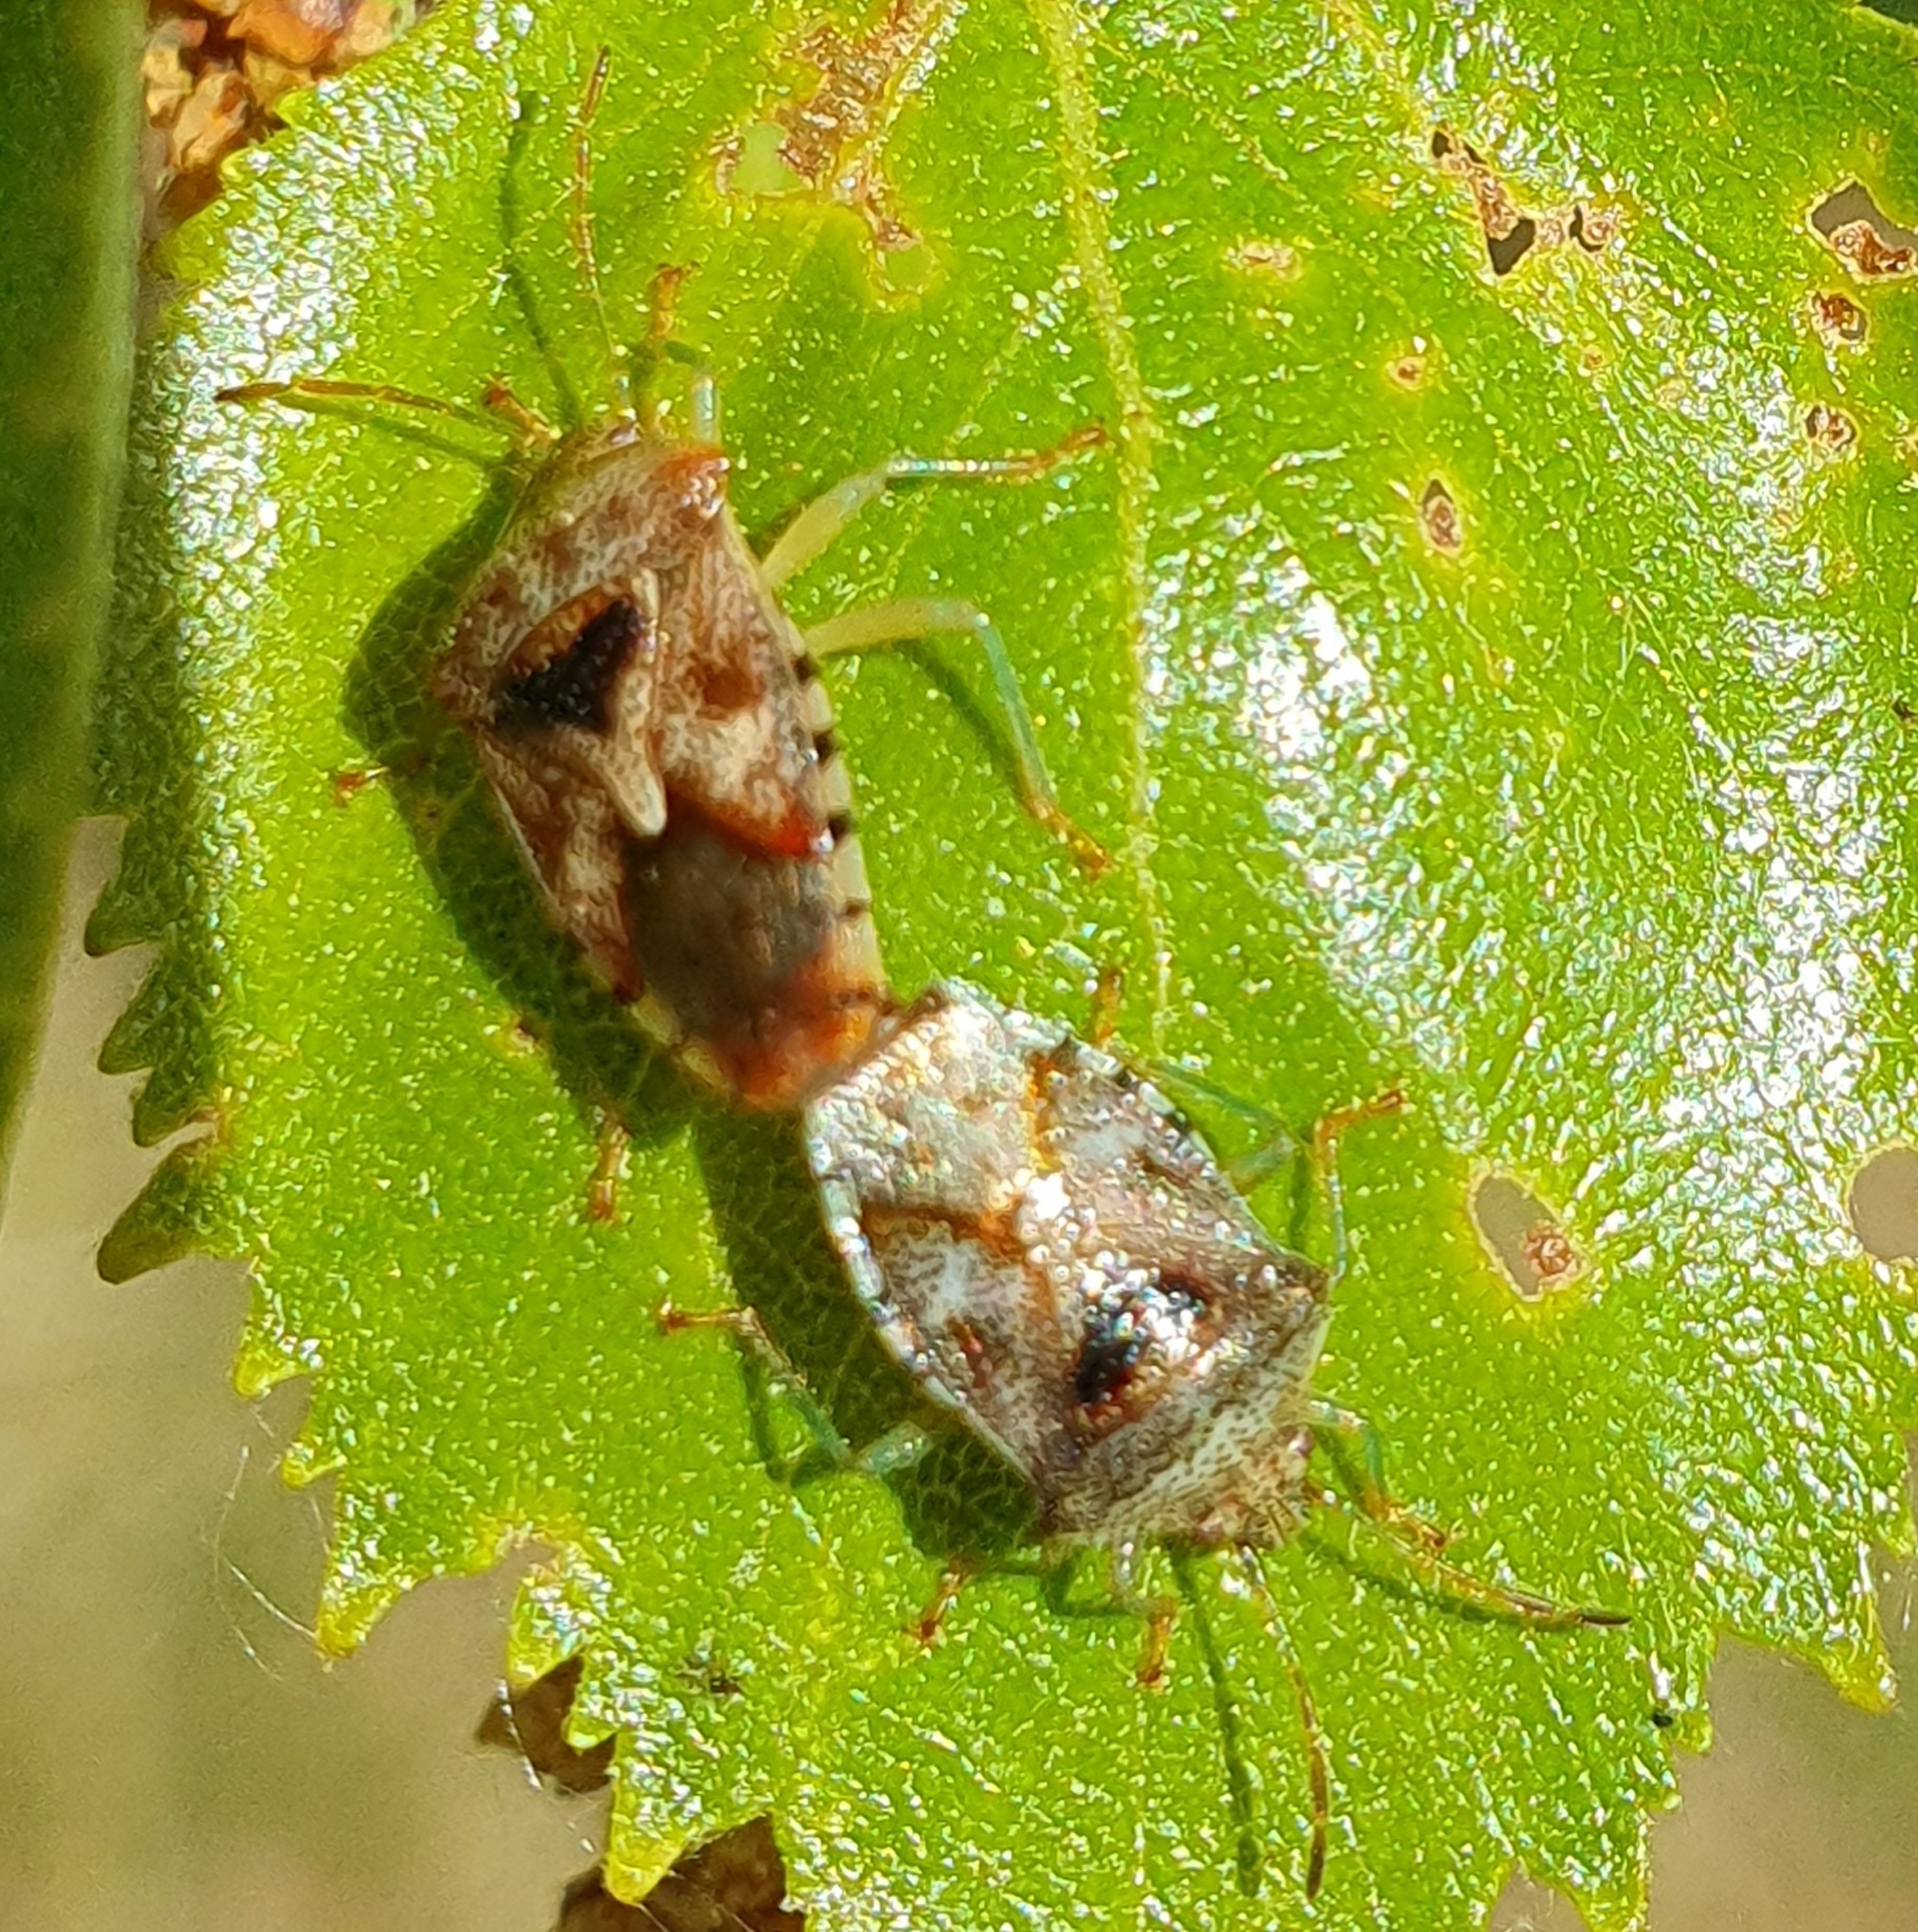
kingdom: Animalia
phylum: Arthropoda
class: Insecta
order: Hemiptera
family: Acanthosomatidae
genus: Elasmucha
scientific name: Elasmucha grisea
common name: Parent bug
